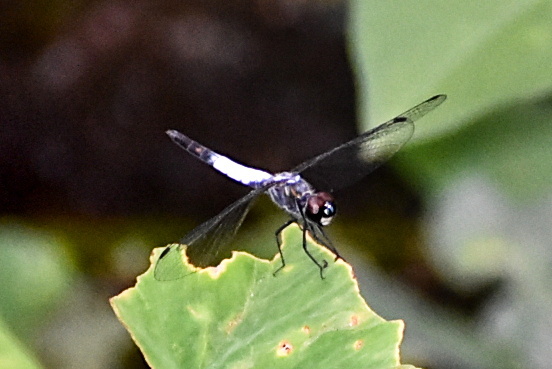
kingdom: Animalia
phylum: Arthropoda
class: Insecta
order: Odonata
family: Libellulidae
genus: Brachydiplax
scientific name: Brachydiplax sobrina
